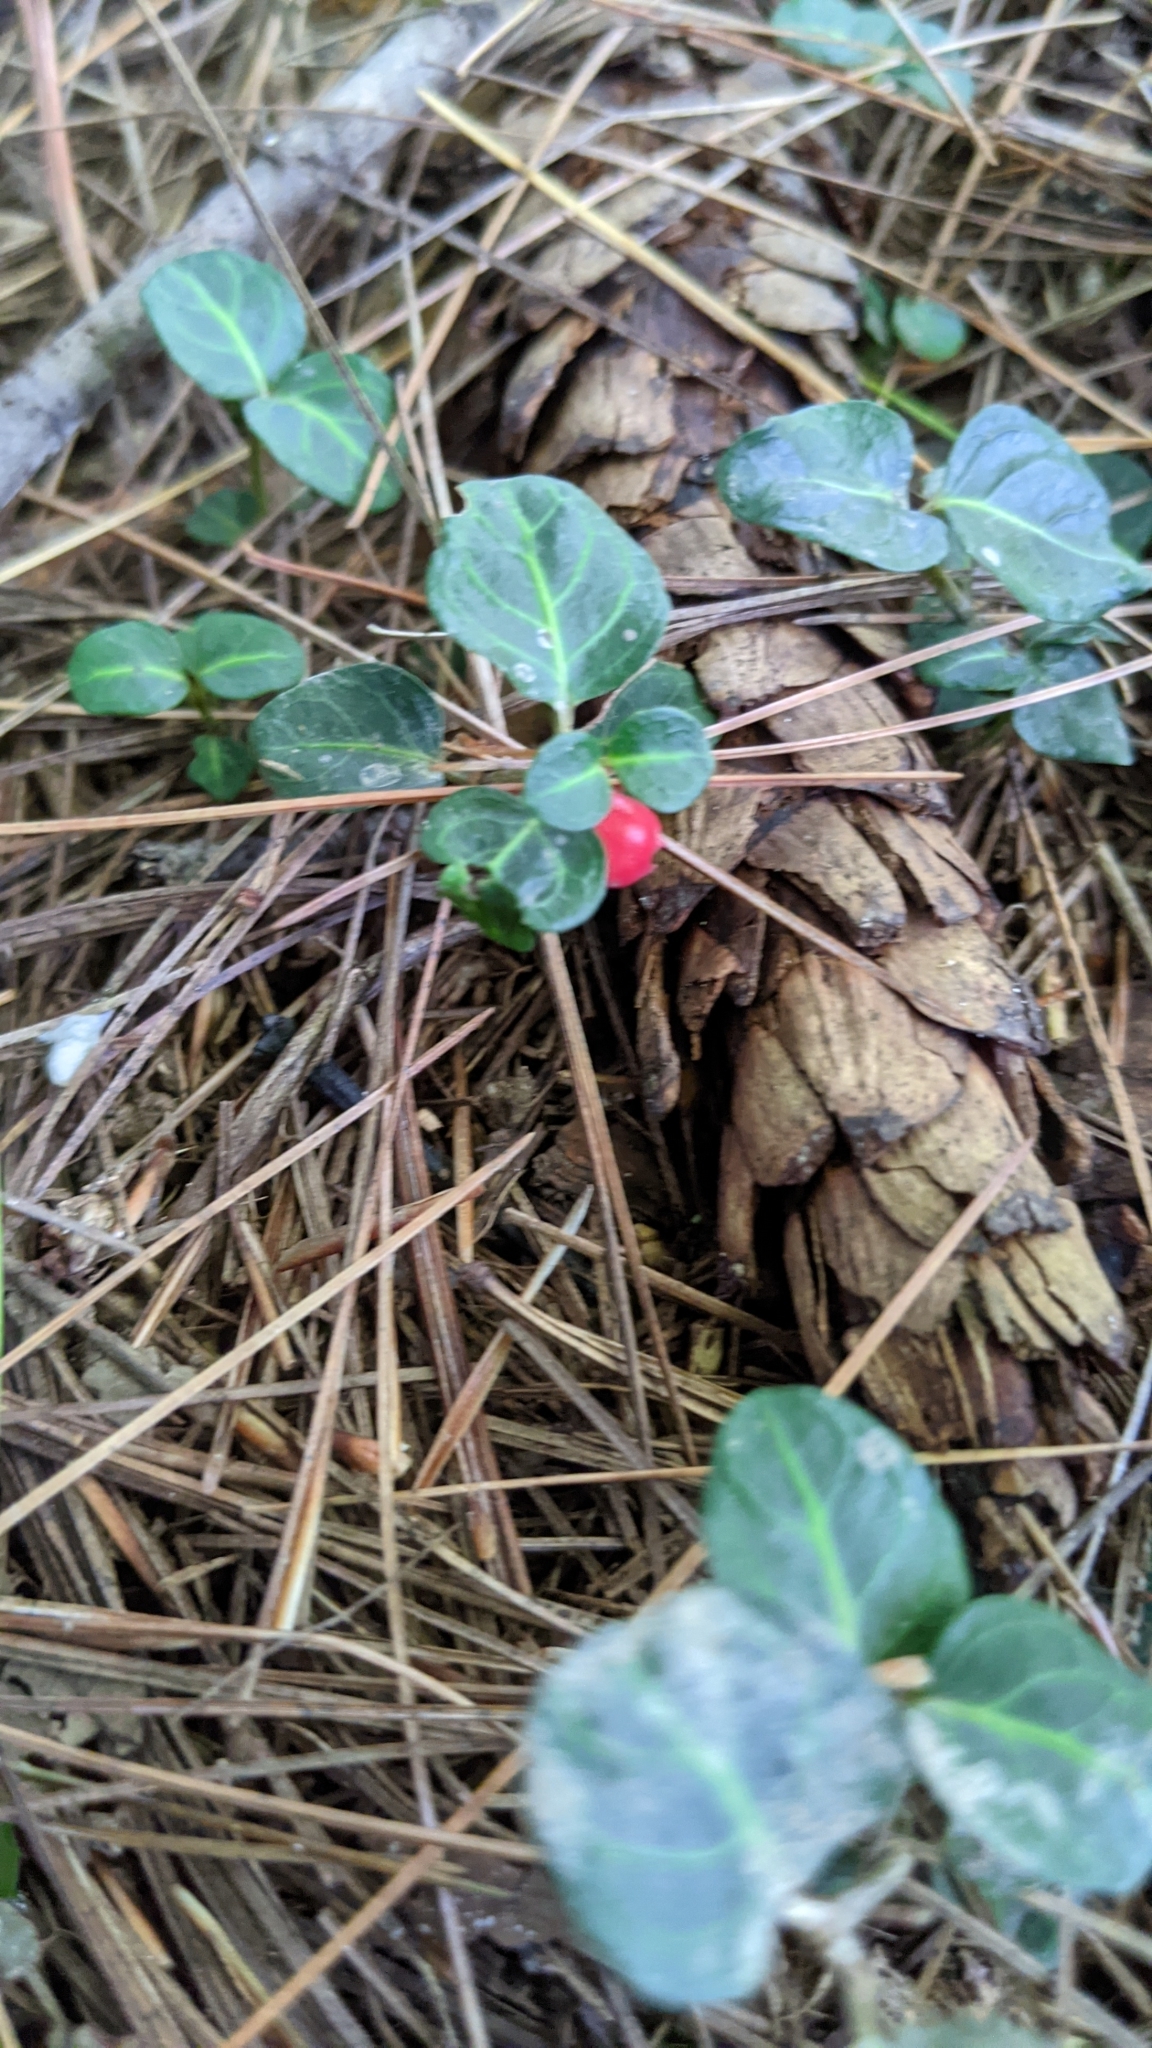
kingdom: Plantae
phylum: Tracheophyta
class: Magnoliopsida
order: Gentianales
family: Rubiaceae
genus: Mitchella
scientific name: Mitchella repens
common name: Partridge-berry
